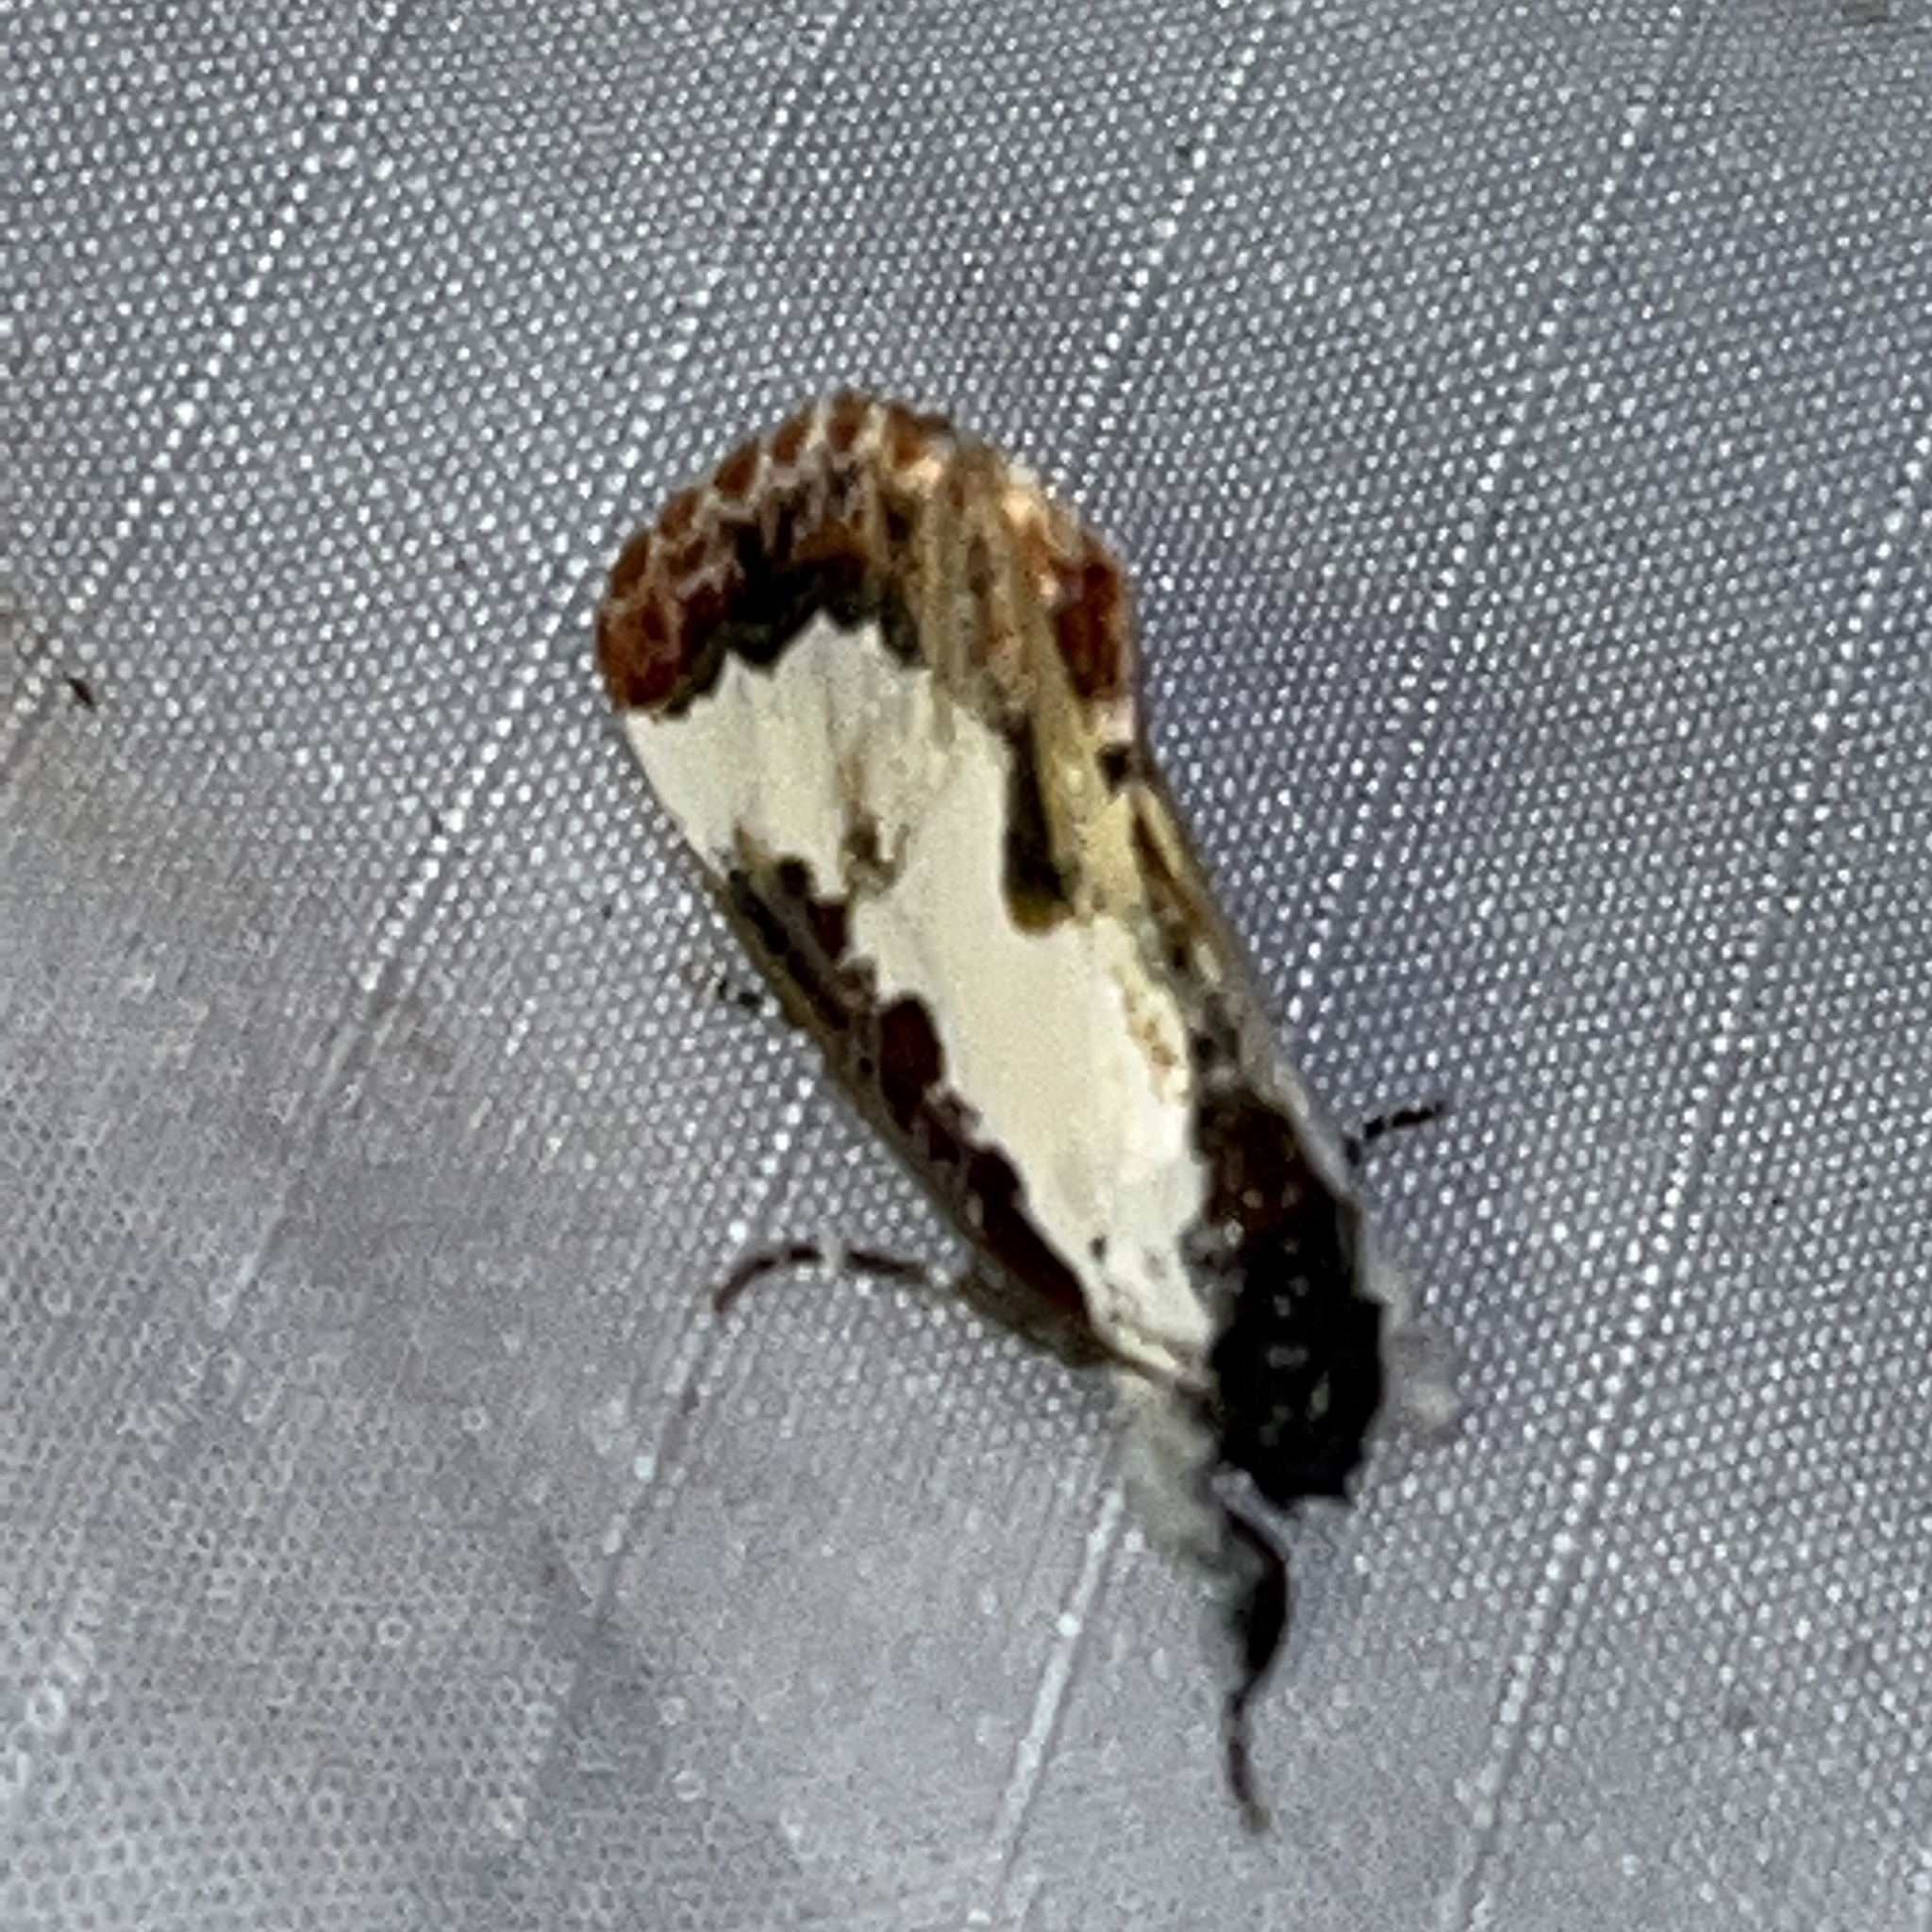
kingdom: Animalia
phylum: Arthropoda
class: Insecta
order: Lepidoptera
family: Noctuidae
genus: Eudryas
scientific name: Eudryas unio
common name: Pearly wood-nymph
